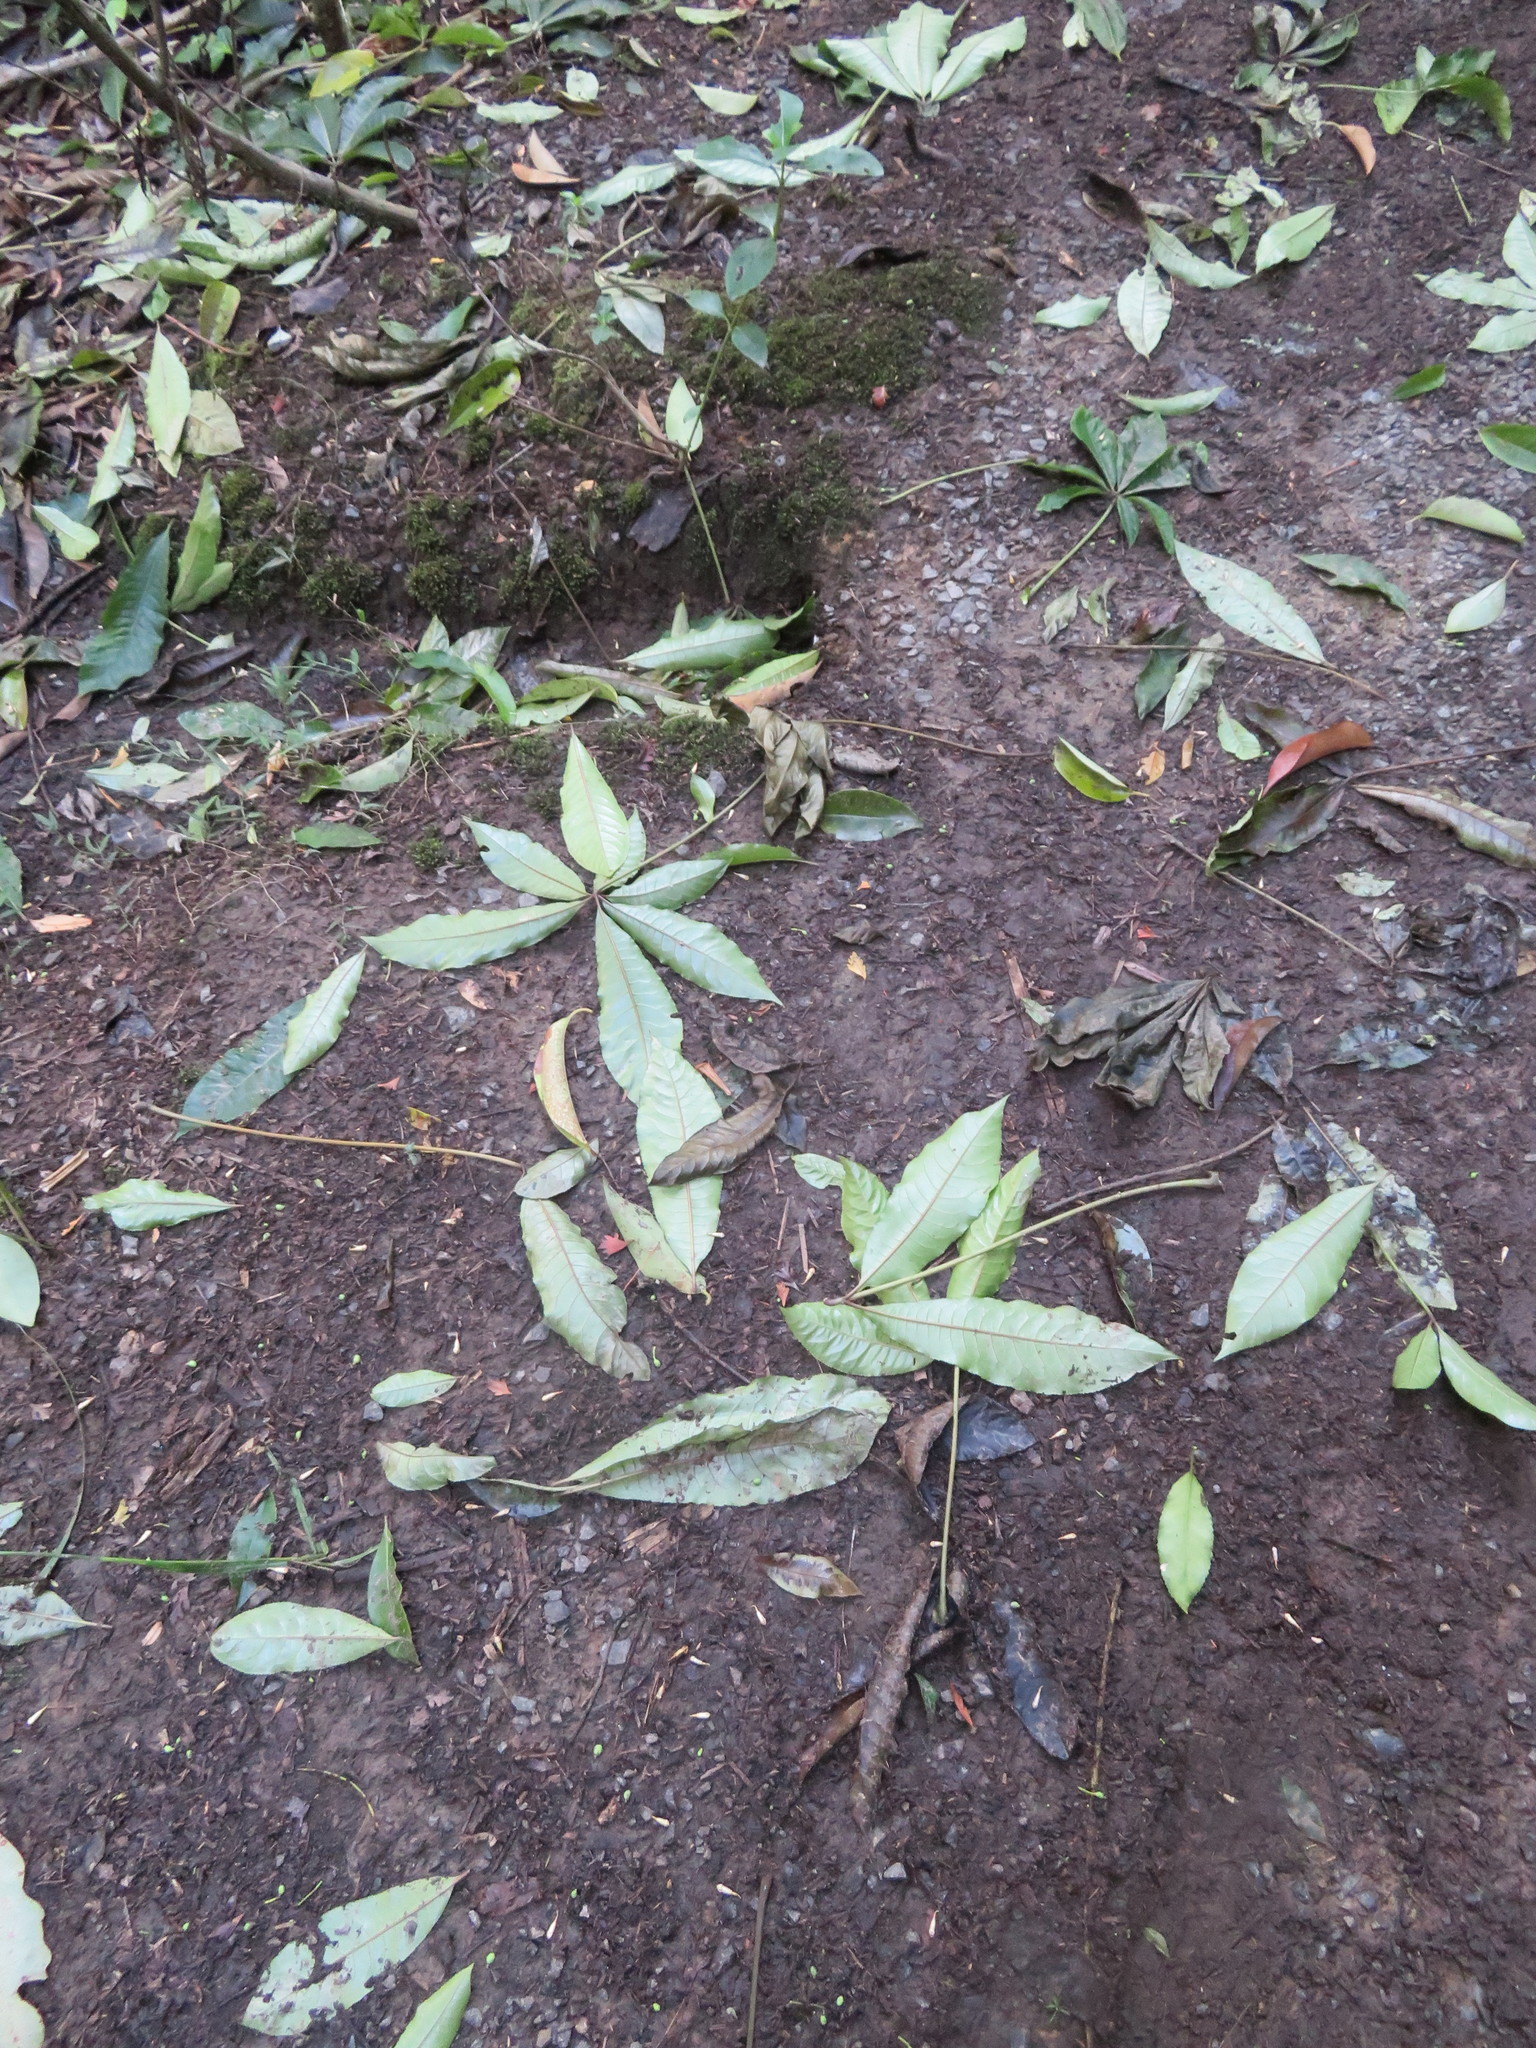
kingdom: Plantae
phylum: Tracheophyta
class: Magnoliopsida
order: Apiales
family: Araliaceae
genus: Schefflera
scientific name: Schefflera digitata
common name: Pate
